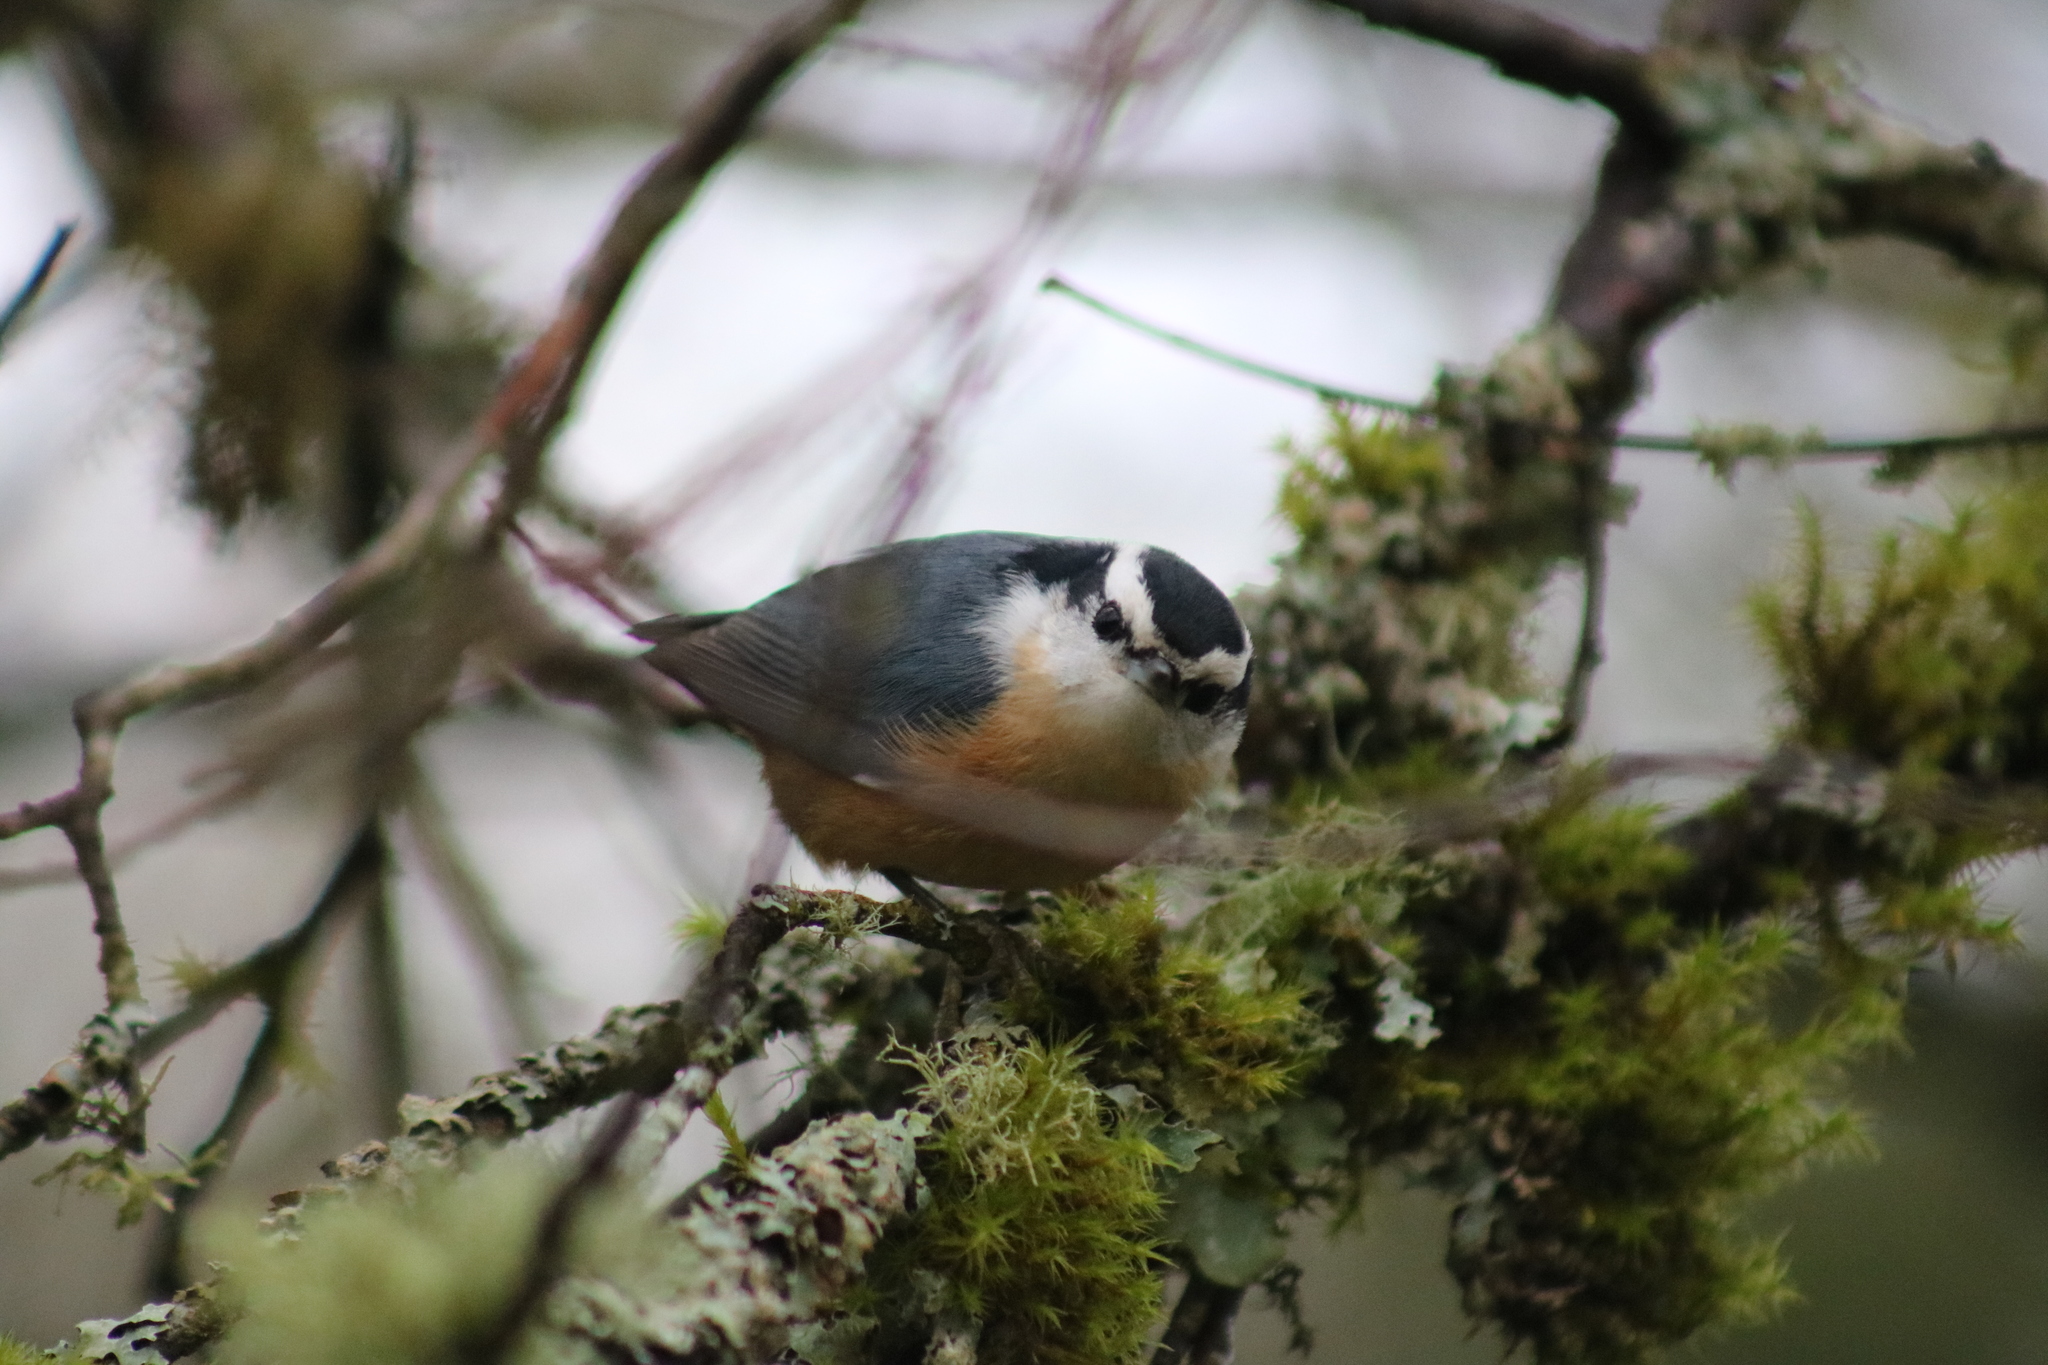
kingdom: Animalia
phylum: Chordata
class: Aves
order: Passeriformes
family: Sittidae
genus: Sitta
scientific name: Sitta canadensis
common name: Red-breasted nuthatch
